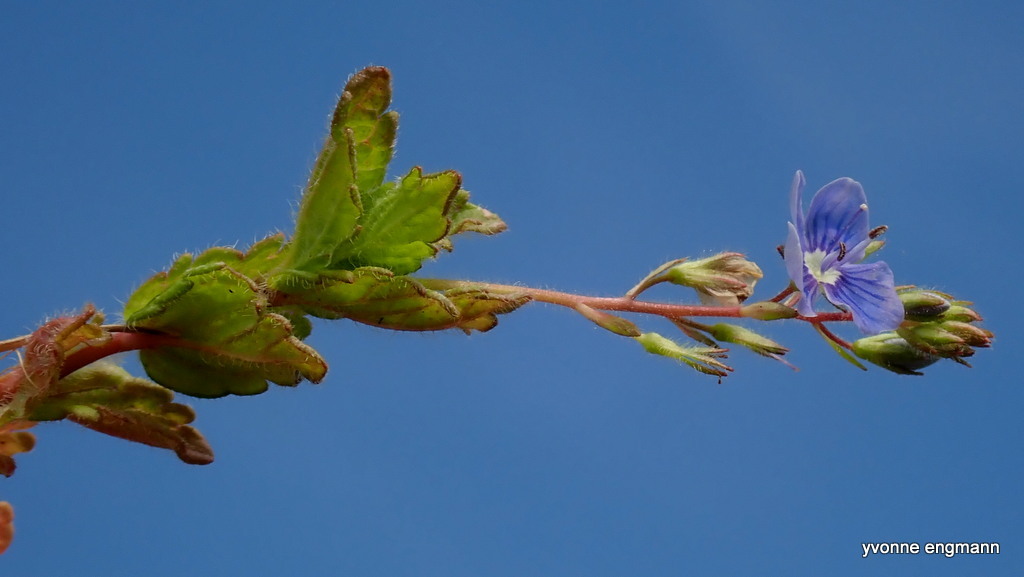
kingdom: Plantae
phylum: Tracheophyta
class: Magnoliopsida
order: Lamiales
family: Plantaginaceae
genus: Veronica
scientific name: Veronica chamaedrys
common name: Germander speedwell
